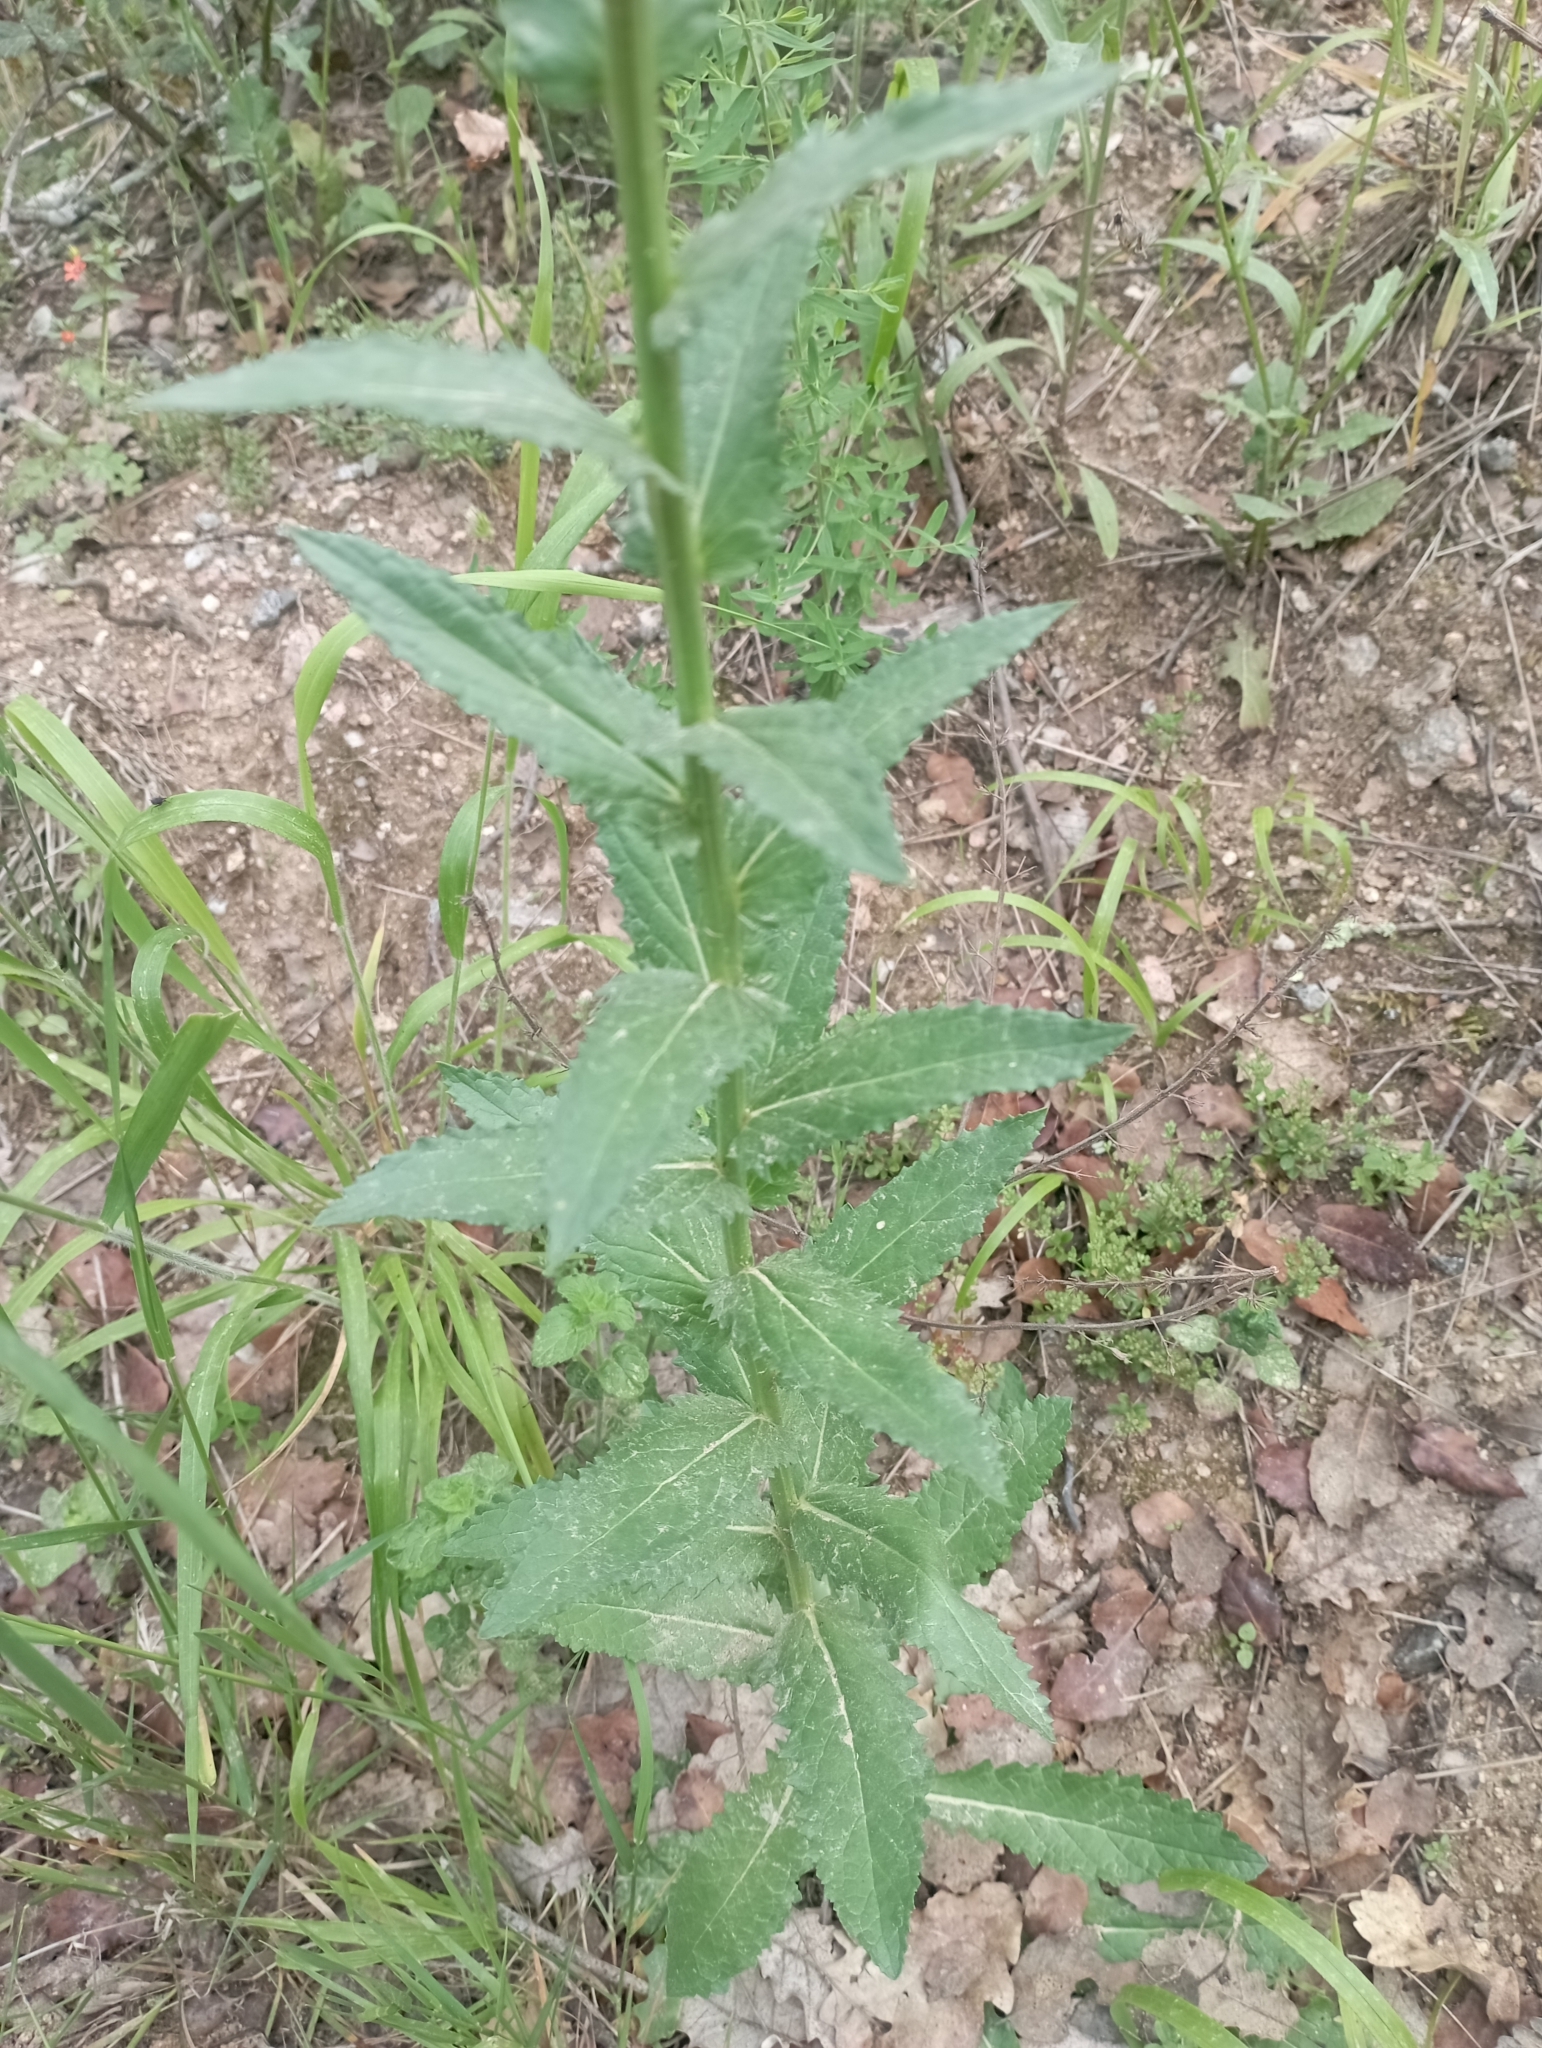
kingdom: Plantae
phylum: Tracheophyta
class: Magnoliopsida
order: Lamiales
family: Scrophulariaceae
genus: Verbascum
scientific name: Verbascum blattaria
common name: Moth mullein
